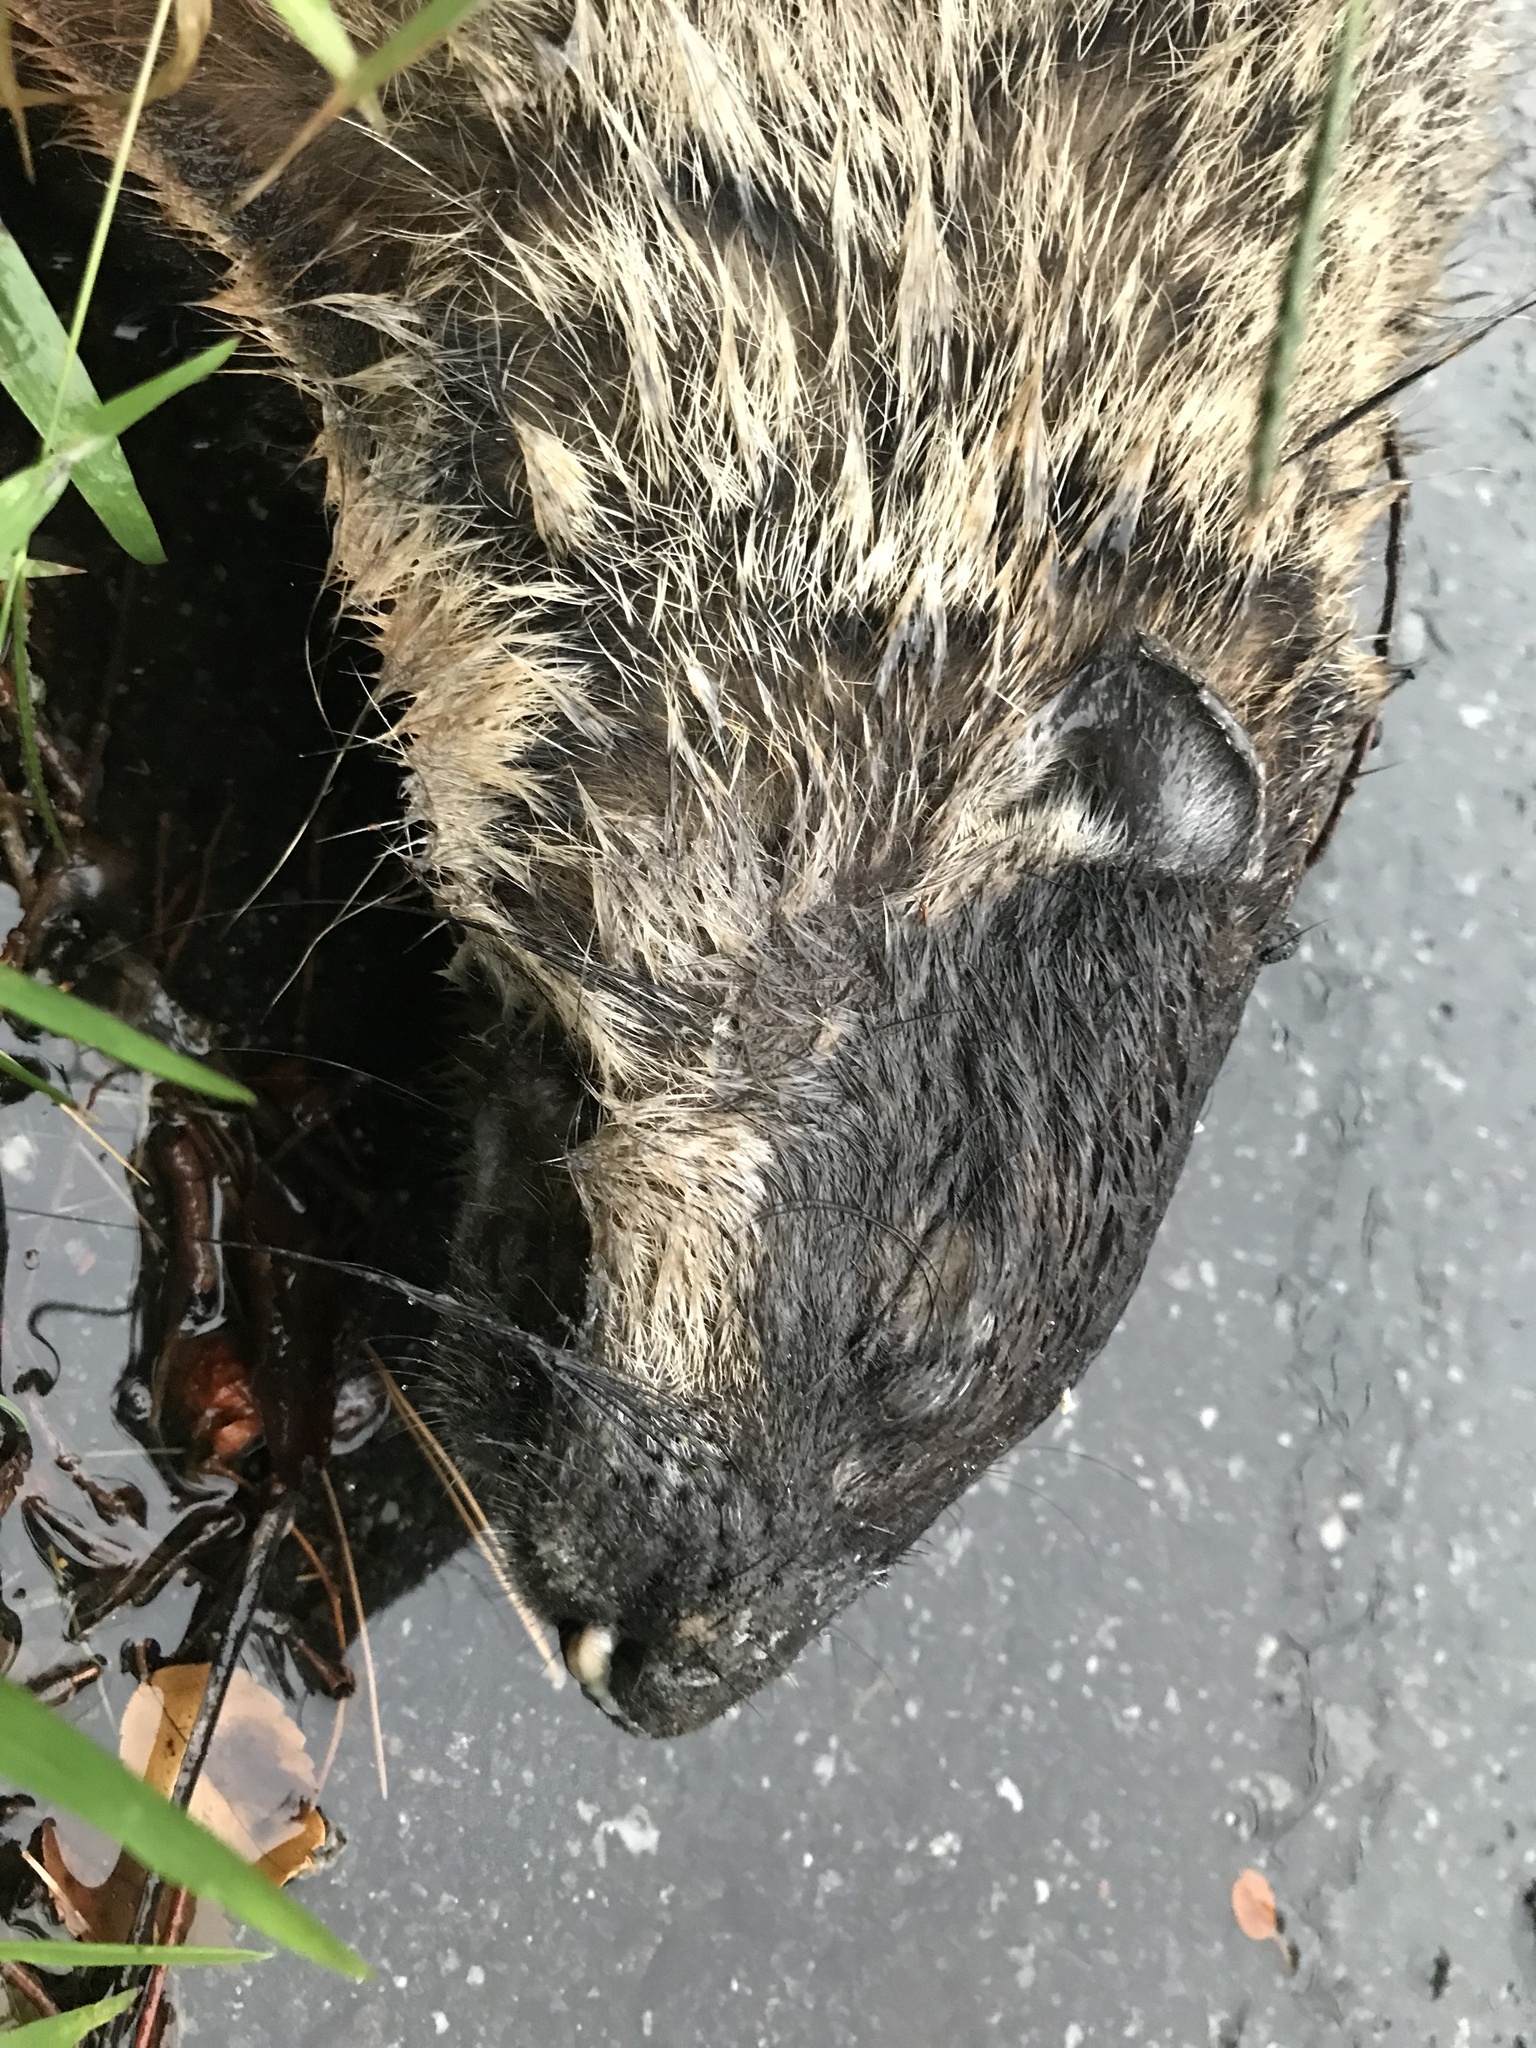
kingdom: Animalia
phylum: Chordata
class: Mammalia
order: Rodentia
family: Sciuridae
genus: Marmota
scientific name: Marmota monax
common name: Groundhog
